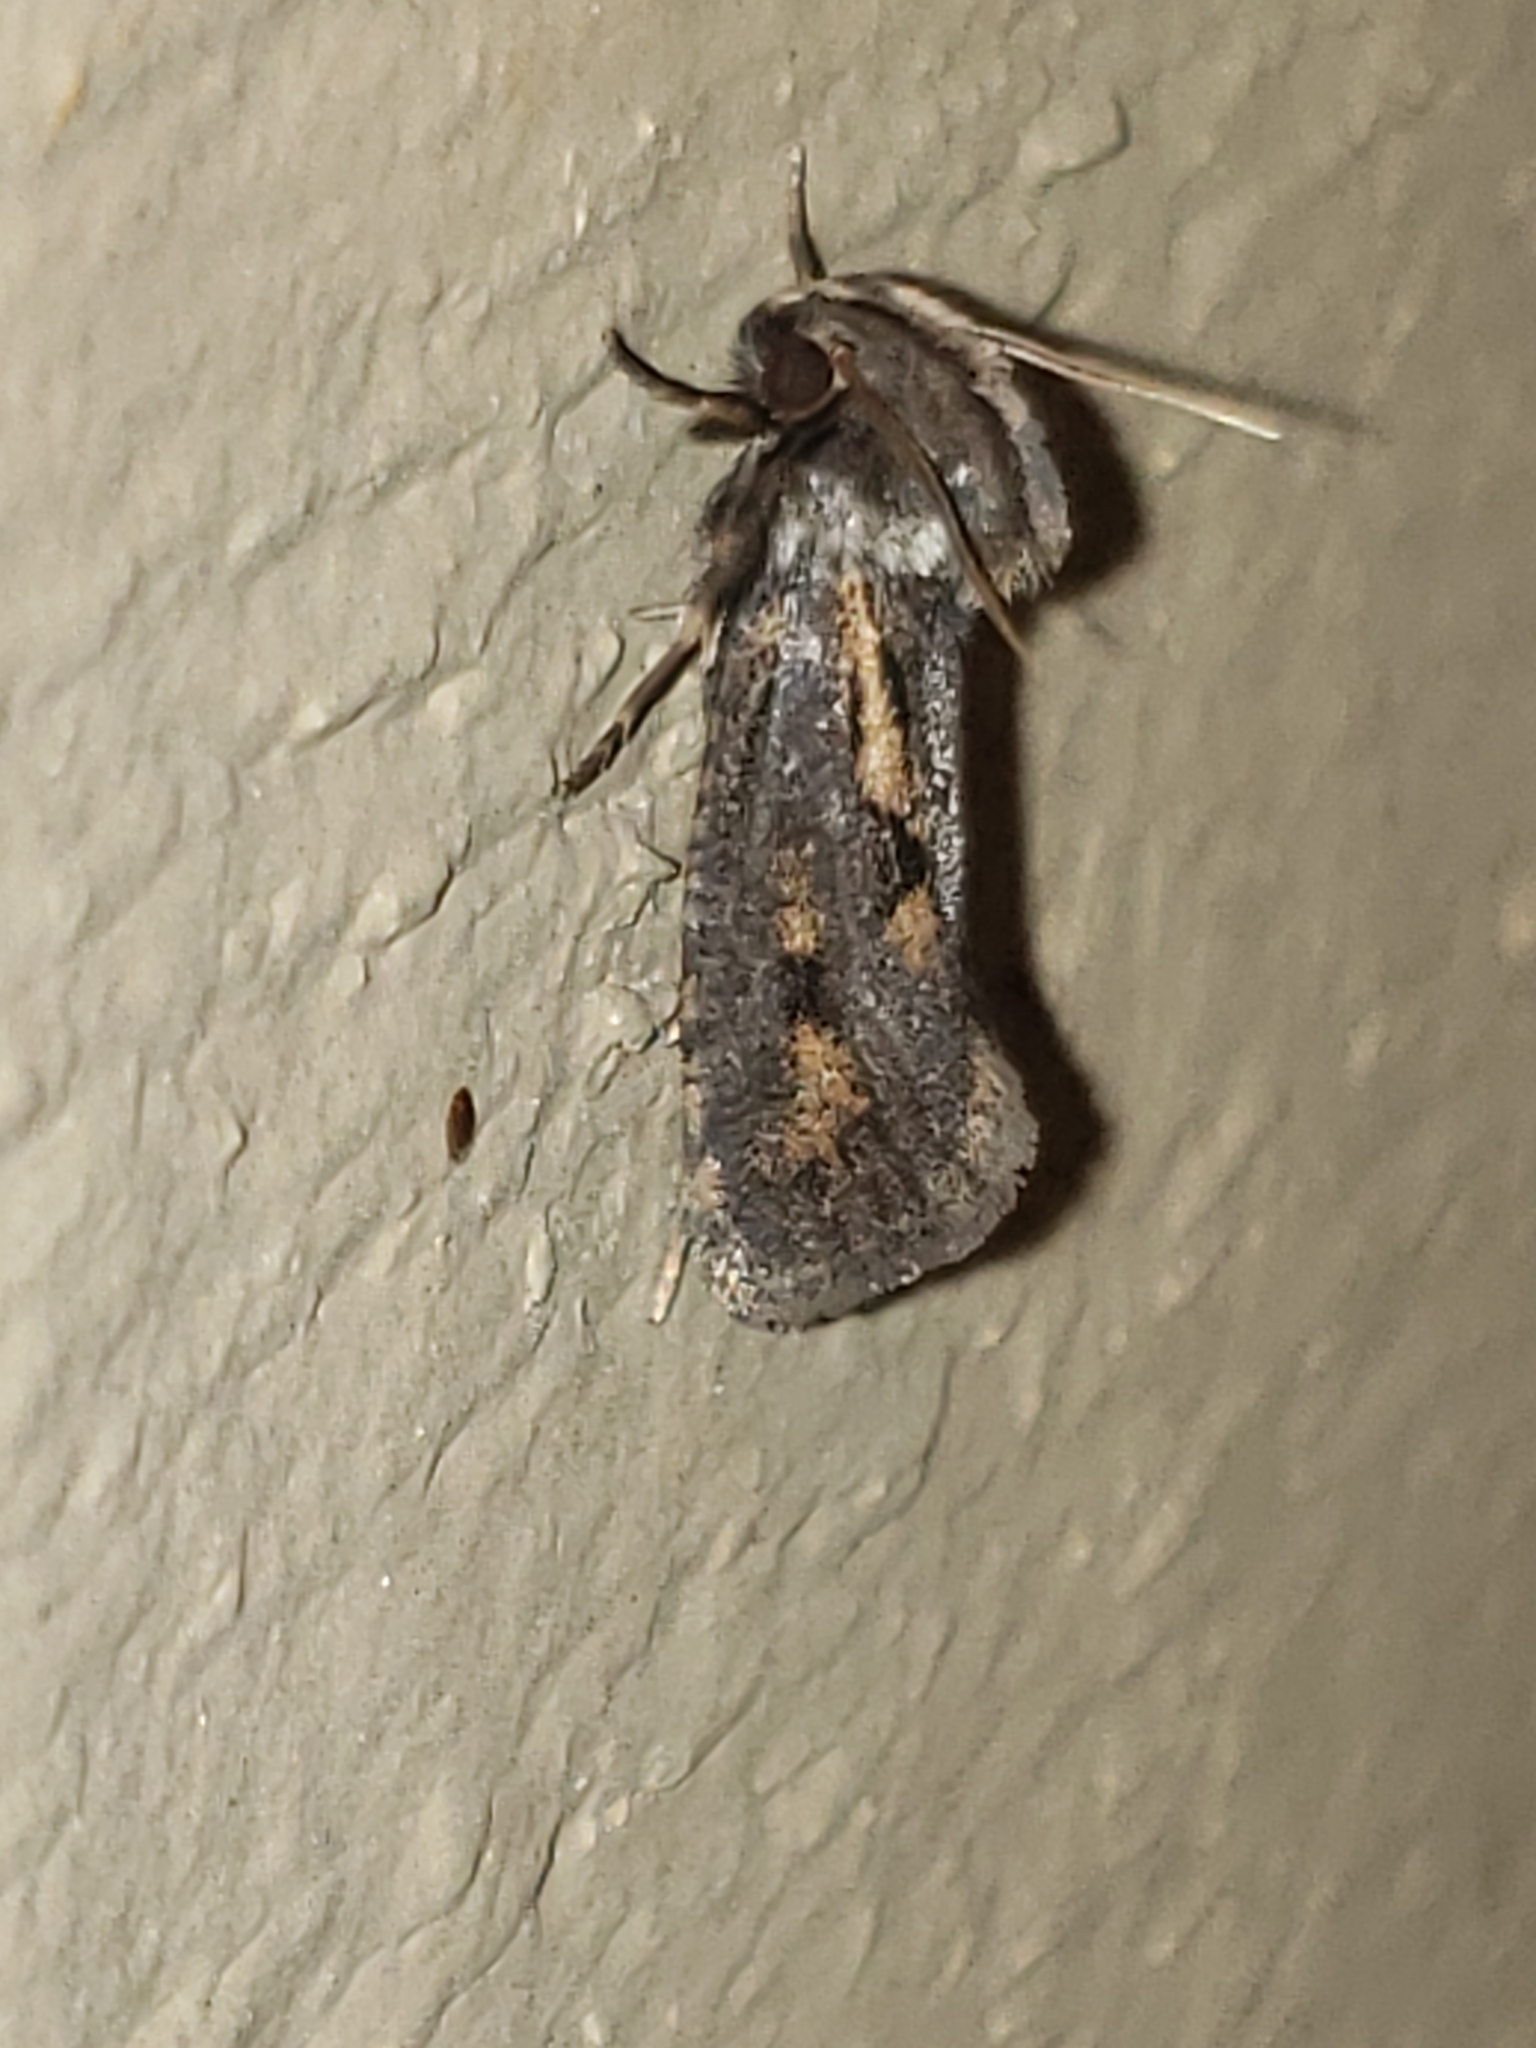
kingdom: Animalia
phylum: Arthropoda
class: Insecta
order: Lepidoptera
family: Tineidae
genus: Acrolophus
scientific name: Acrolophus popeanella
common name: Clemens' grass tubeworm moth
